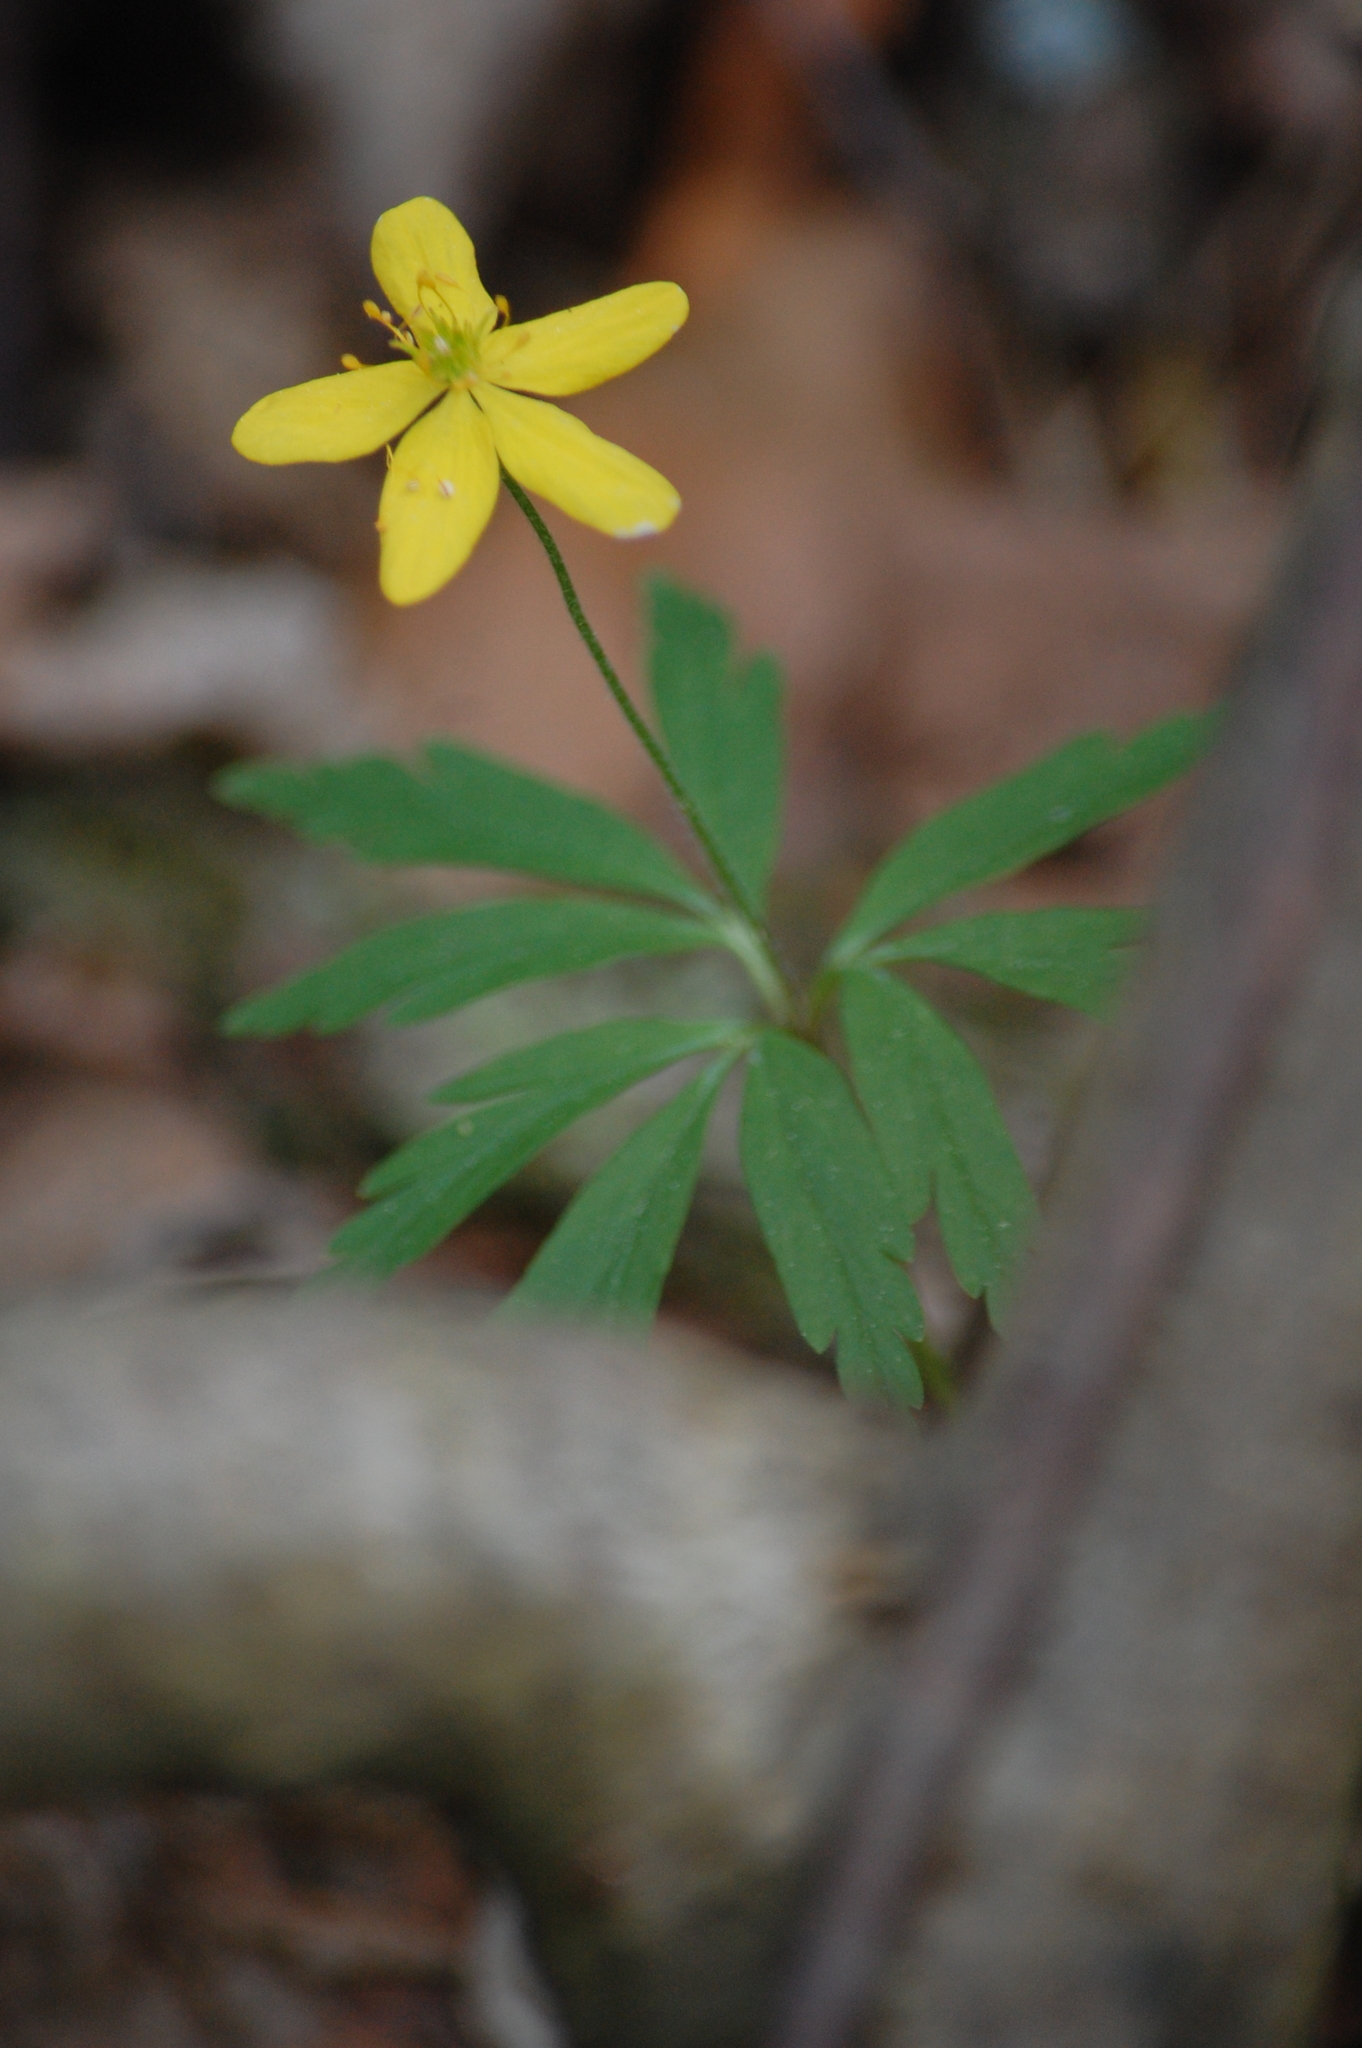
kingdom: Plantae
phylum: Tracheophyta
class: Magnoliopsida
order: Ranunculales
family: Ranunculaceae
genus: Anemone
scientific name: Anemone ranunculoides
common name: Yellow anemone
